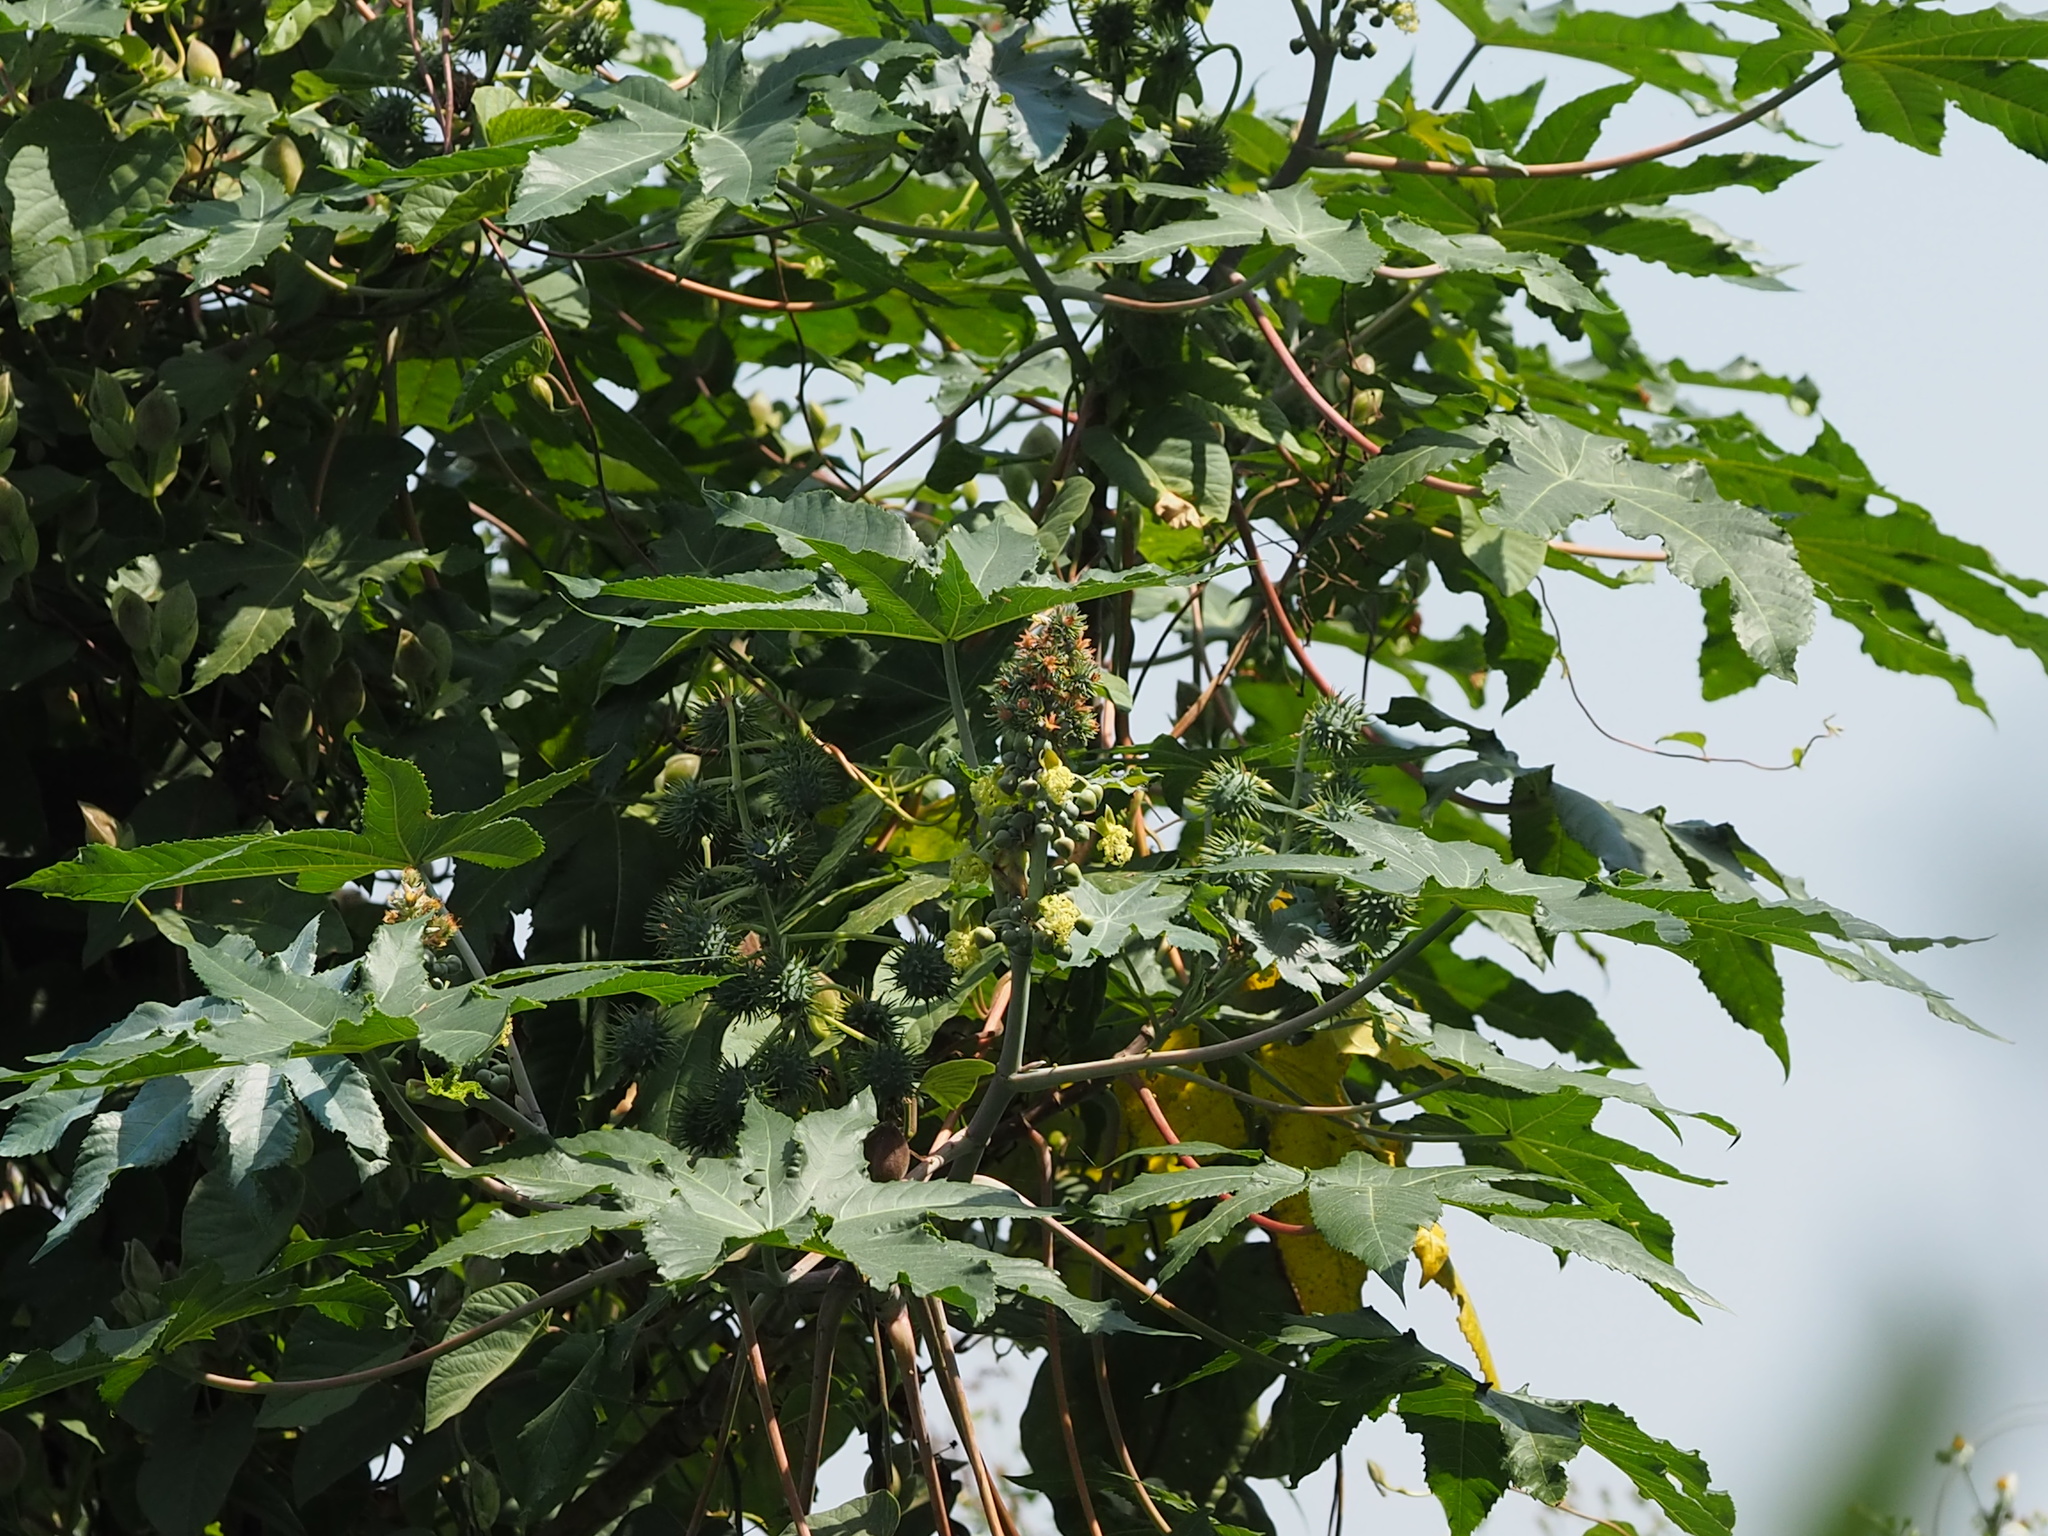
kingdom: Plantae
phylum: Tracheophyta
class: Magnoliopsida
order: Malpighiales
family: Euphorbiaceae
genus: Ricinus
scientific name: Ricinus communis
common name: Castor-oil-plant
